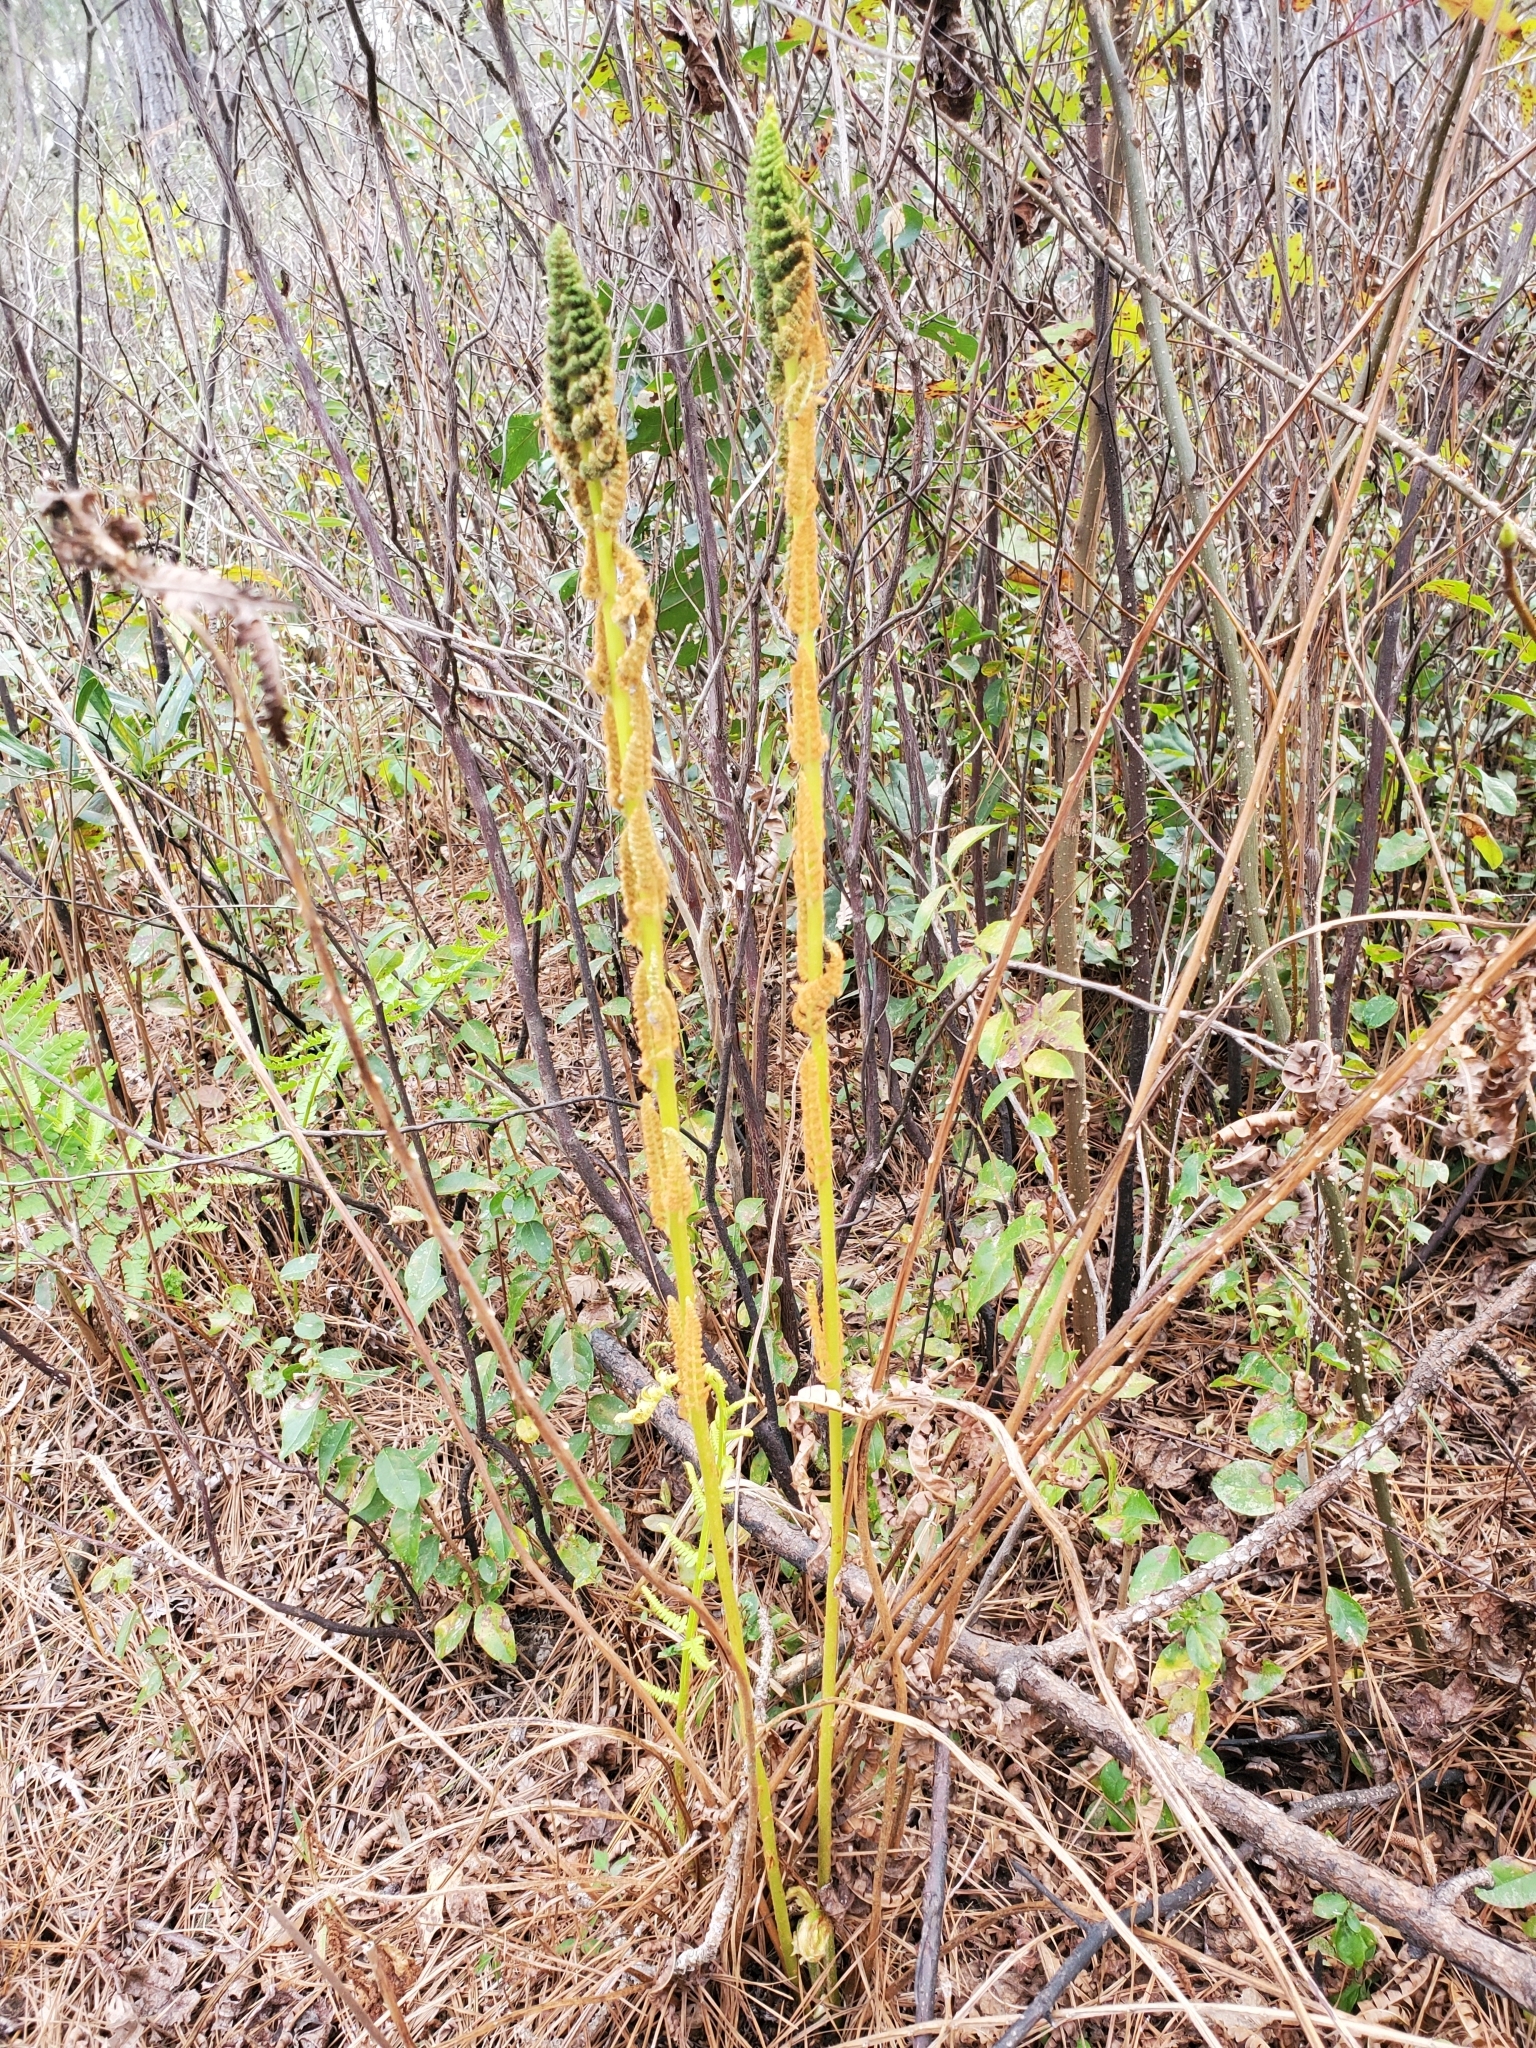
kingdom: Plantae
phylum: Tracheophyta
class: Polypodiopsida
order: Osmundales
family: Osmundaceae
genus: Osmundastrum
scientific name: Osmundastrum cinnamomeum
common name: Cinnamon fern
